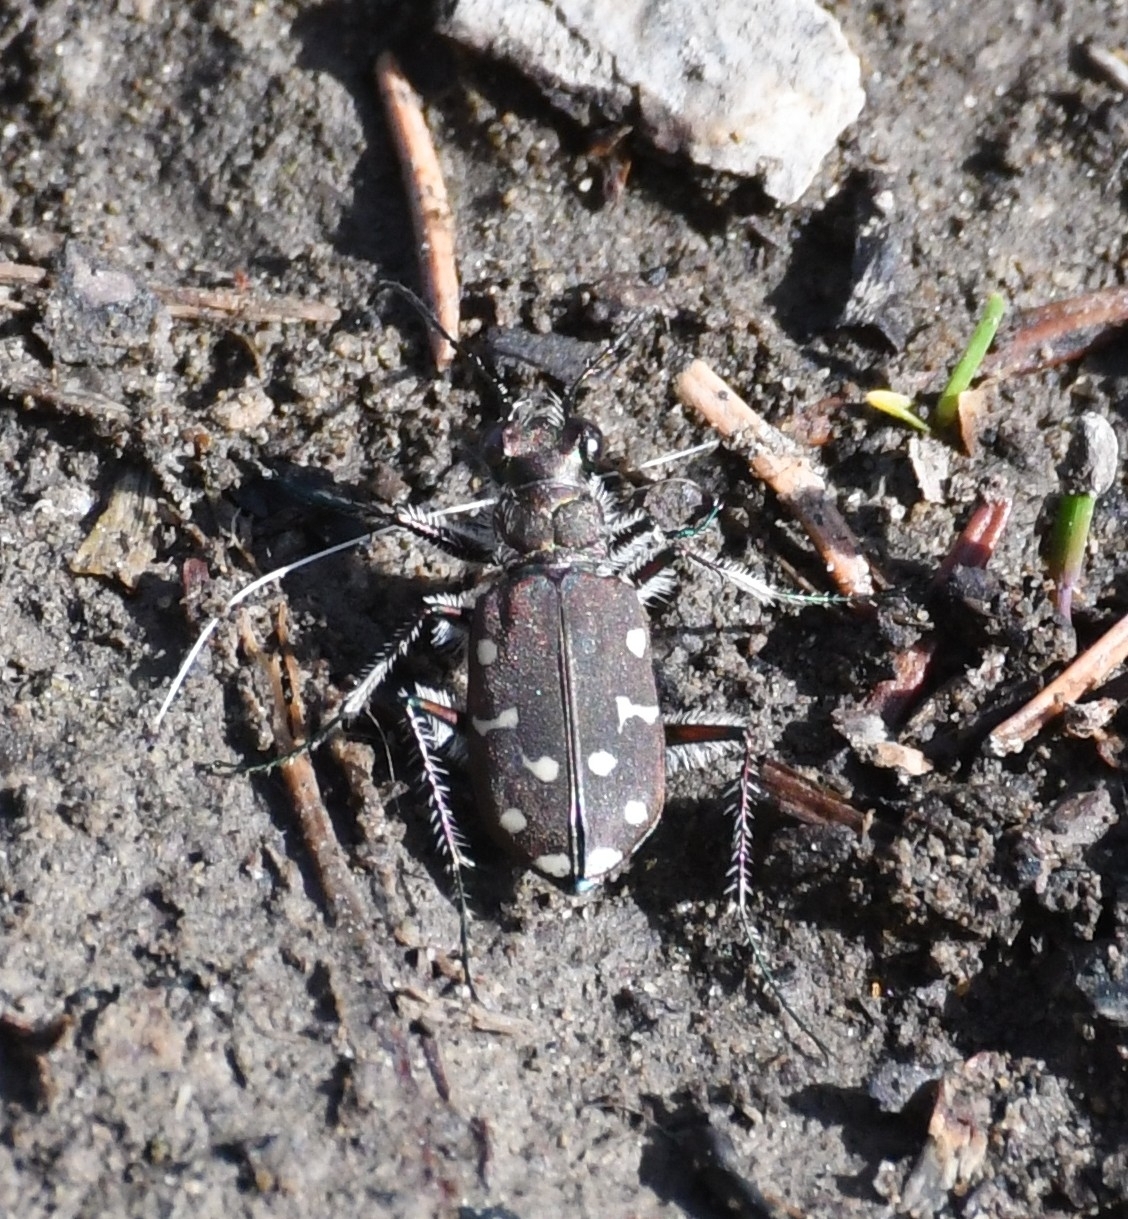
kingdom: Animalia
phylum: Arthropoda
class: Insecta
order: Coleoptera
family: Carabidae
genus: Cicindela
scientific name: Cicindela oregona
